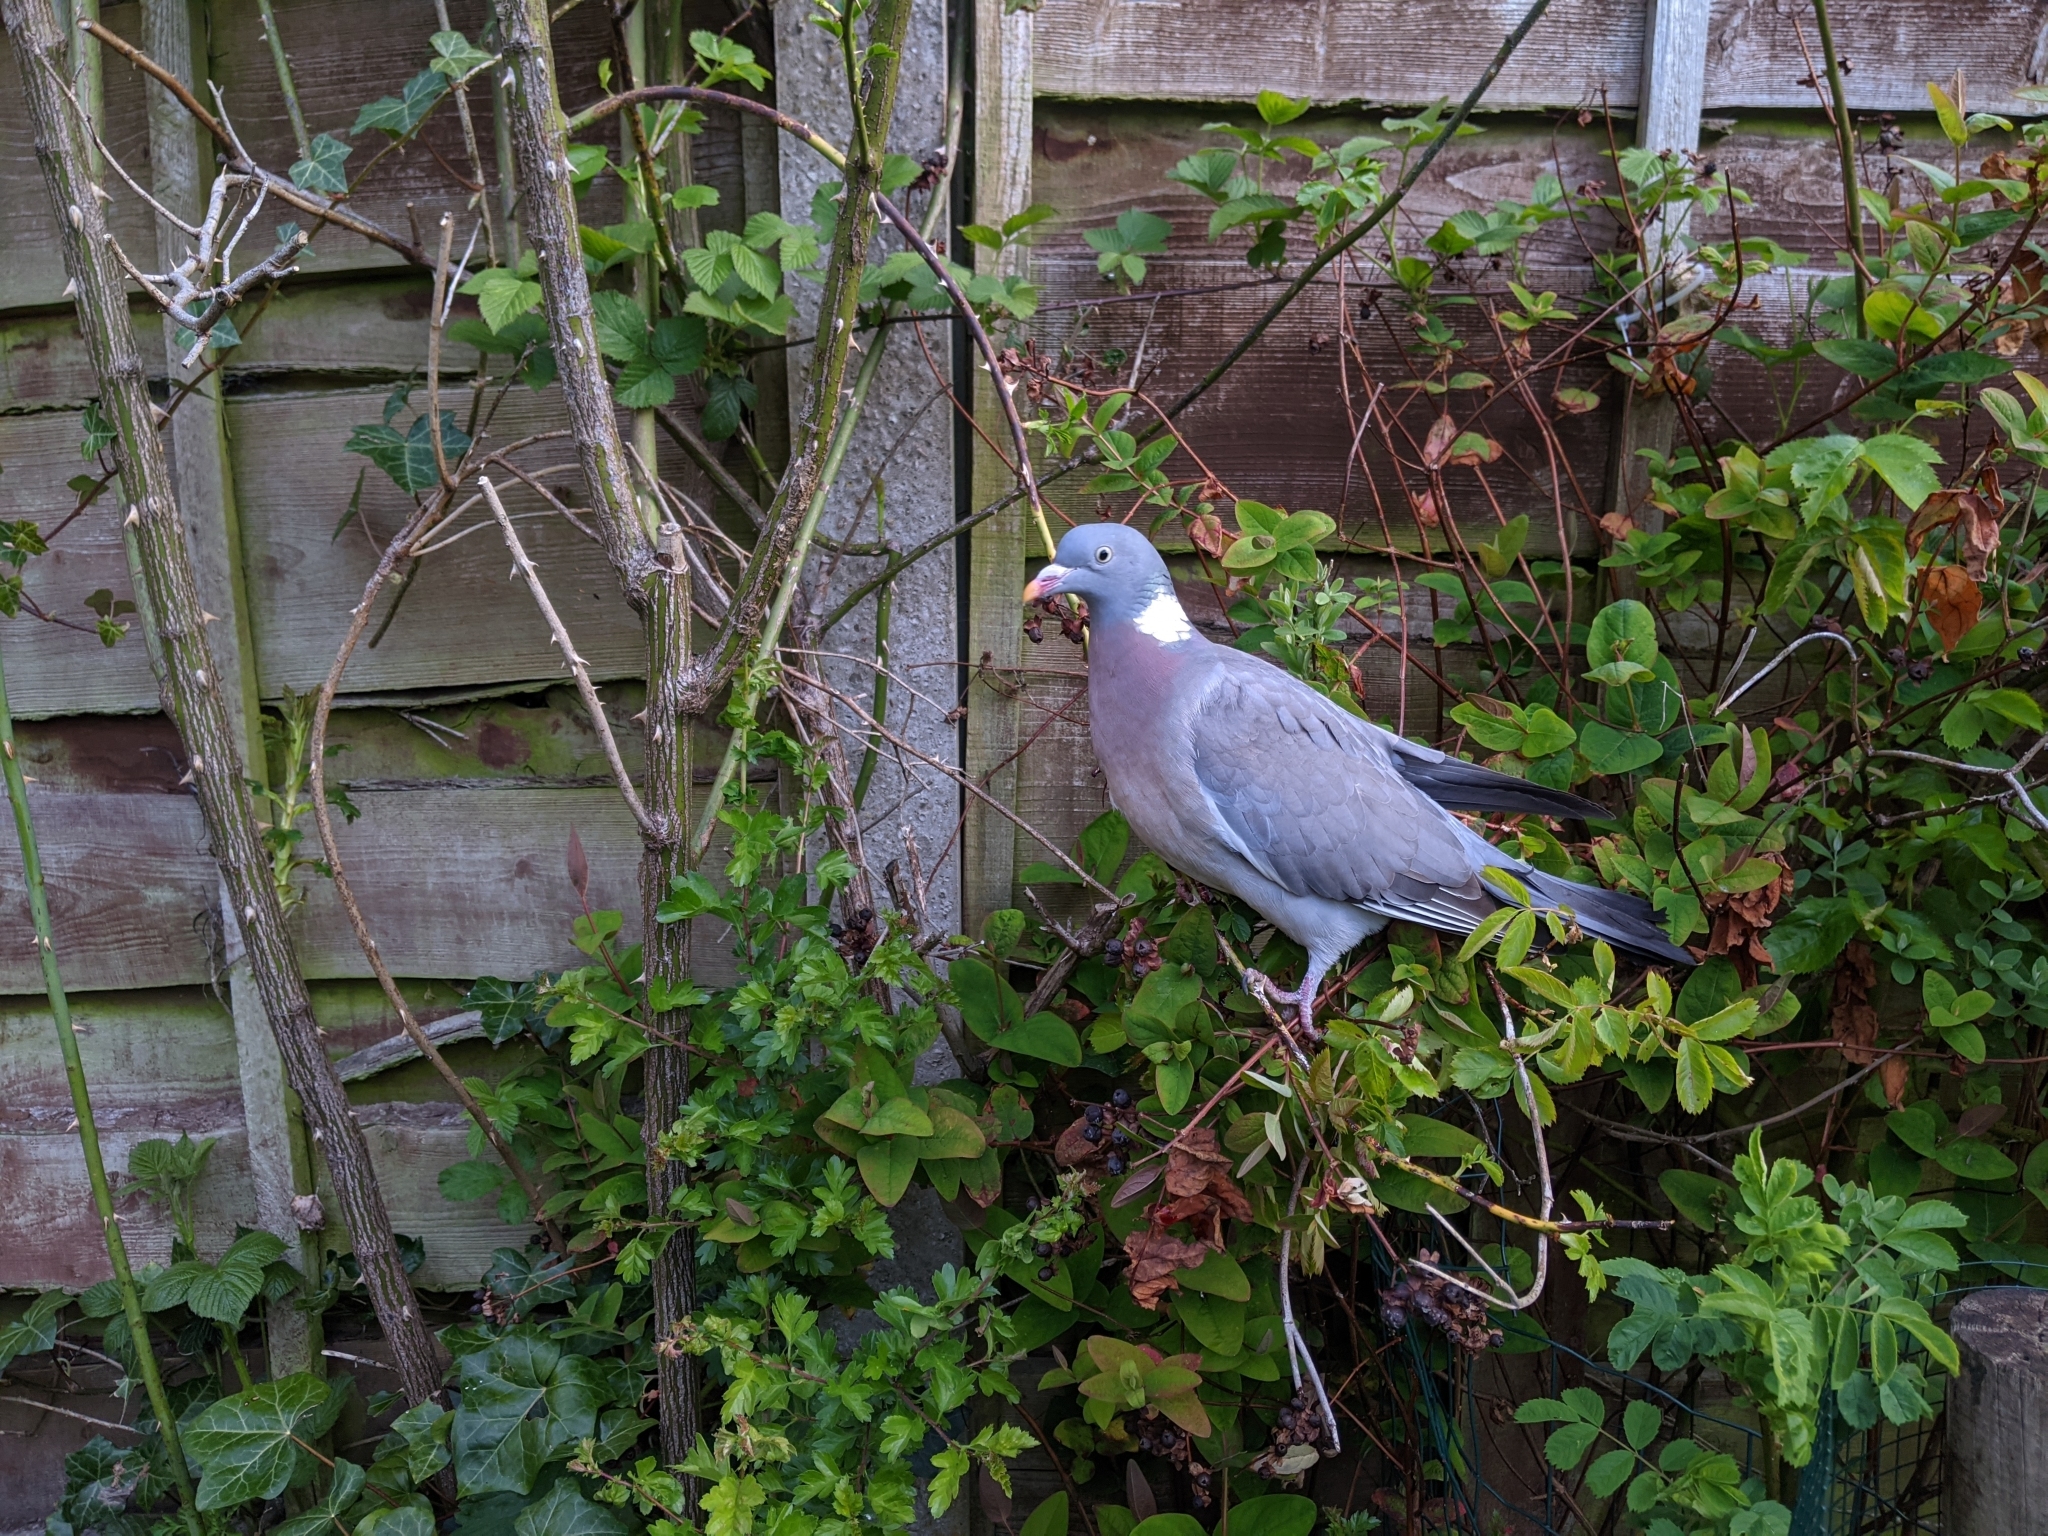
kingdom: Animalia
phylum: Chordata
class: Aves
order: Columbiformes
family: Columbidae
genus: Columba
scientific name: Columba palumbus
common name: Common wood pigeon
